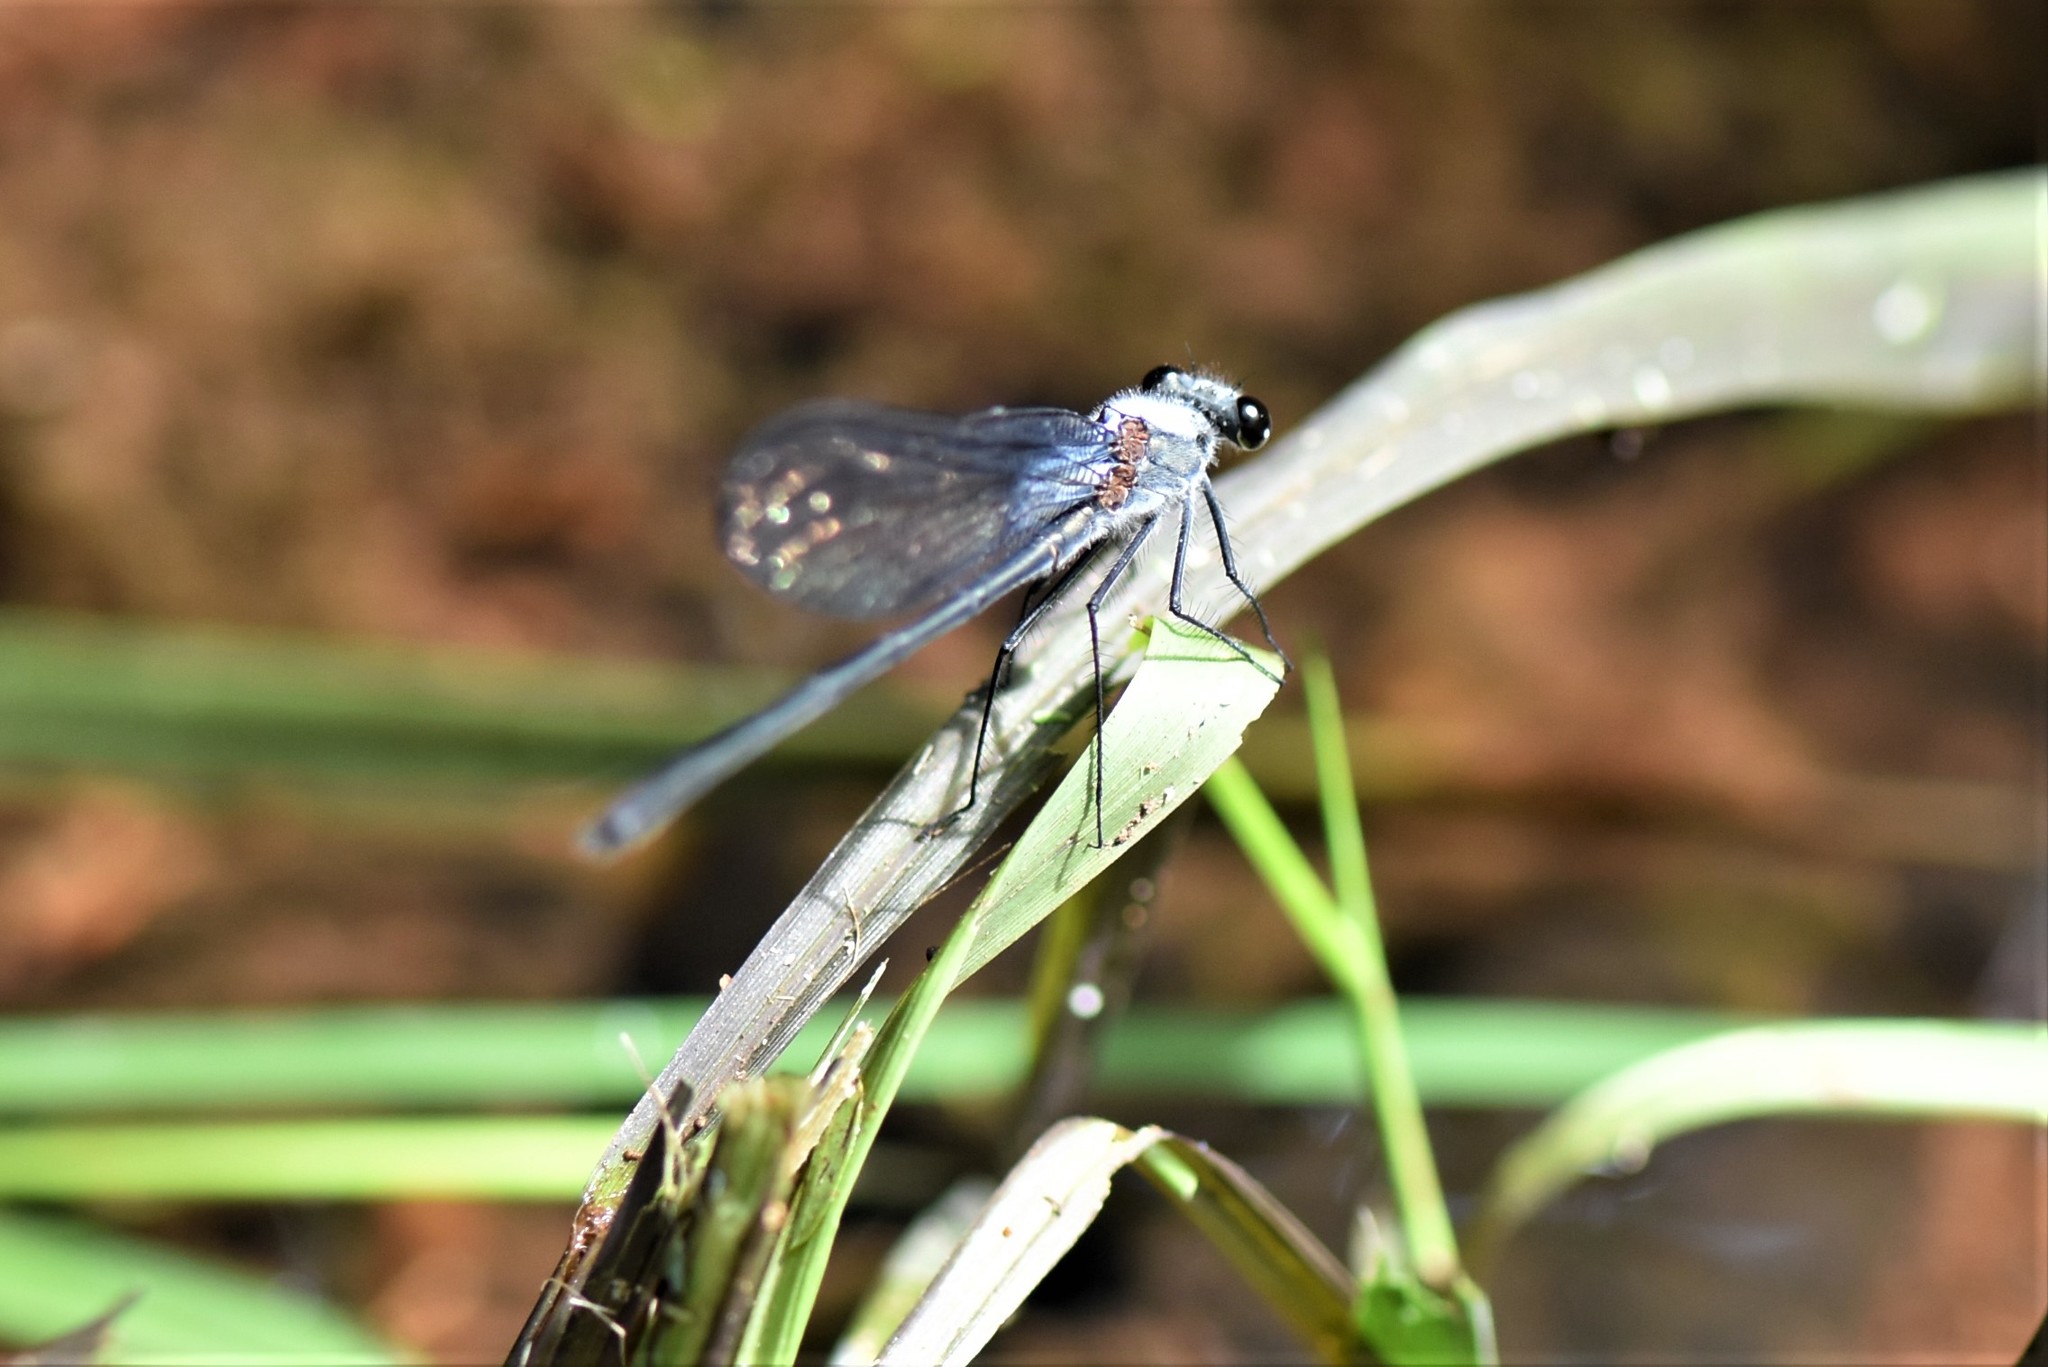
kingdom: Animalia
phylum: Arthropoda
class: Insecta
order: Odonata
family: Calopterygidae
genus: Mnesarete
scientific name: Mnesarete pruinosa
